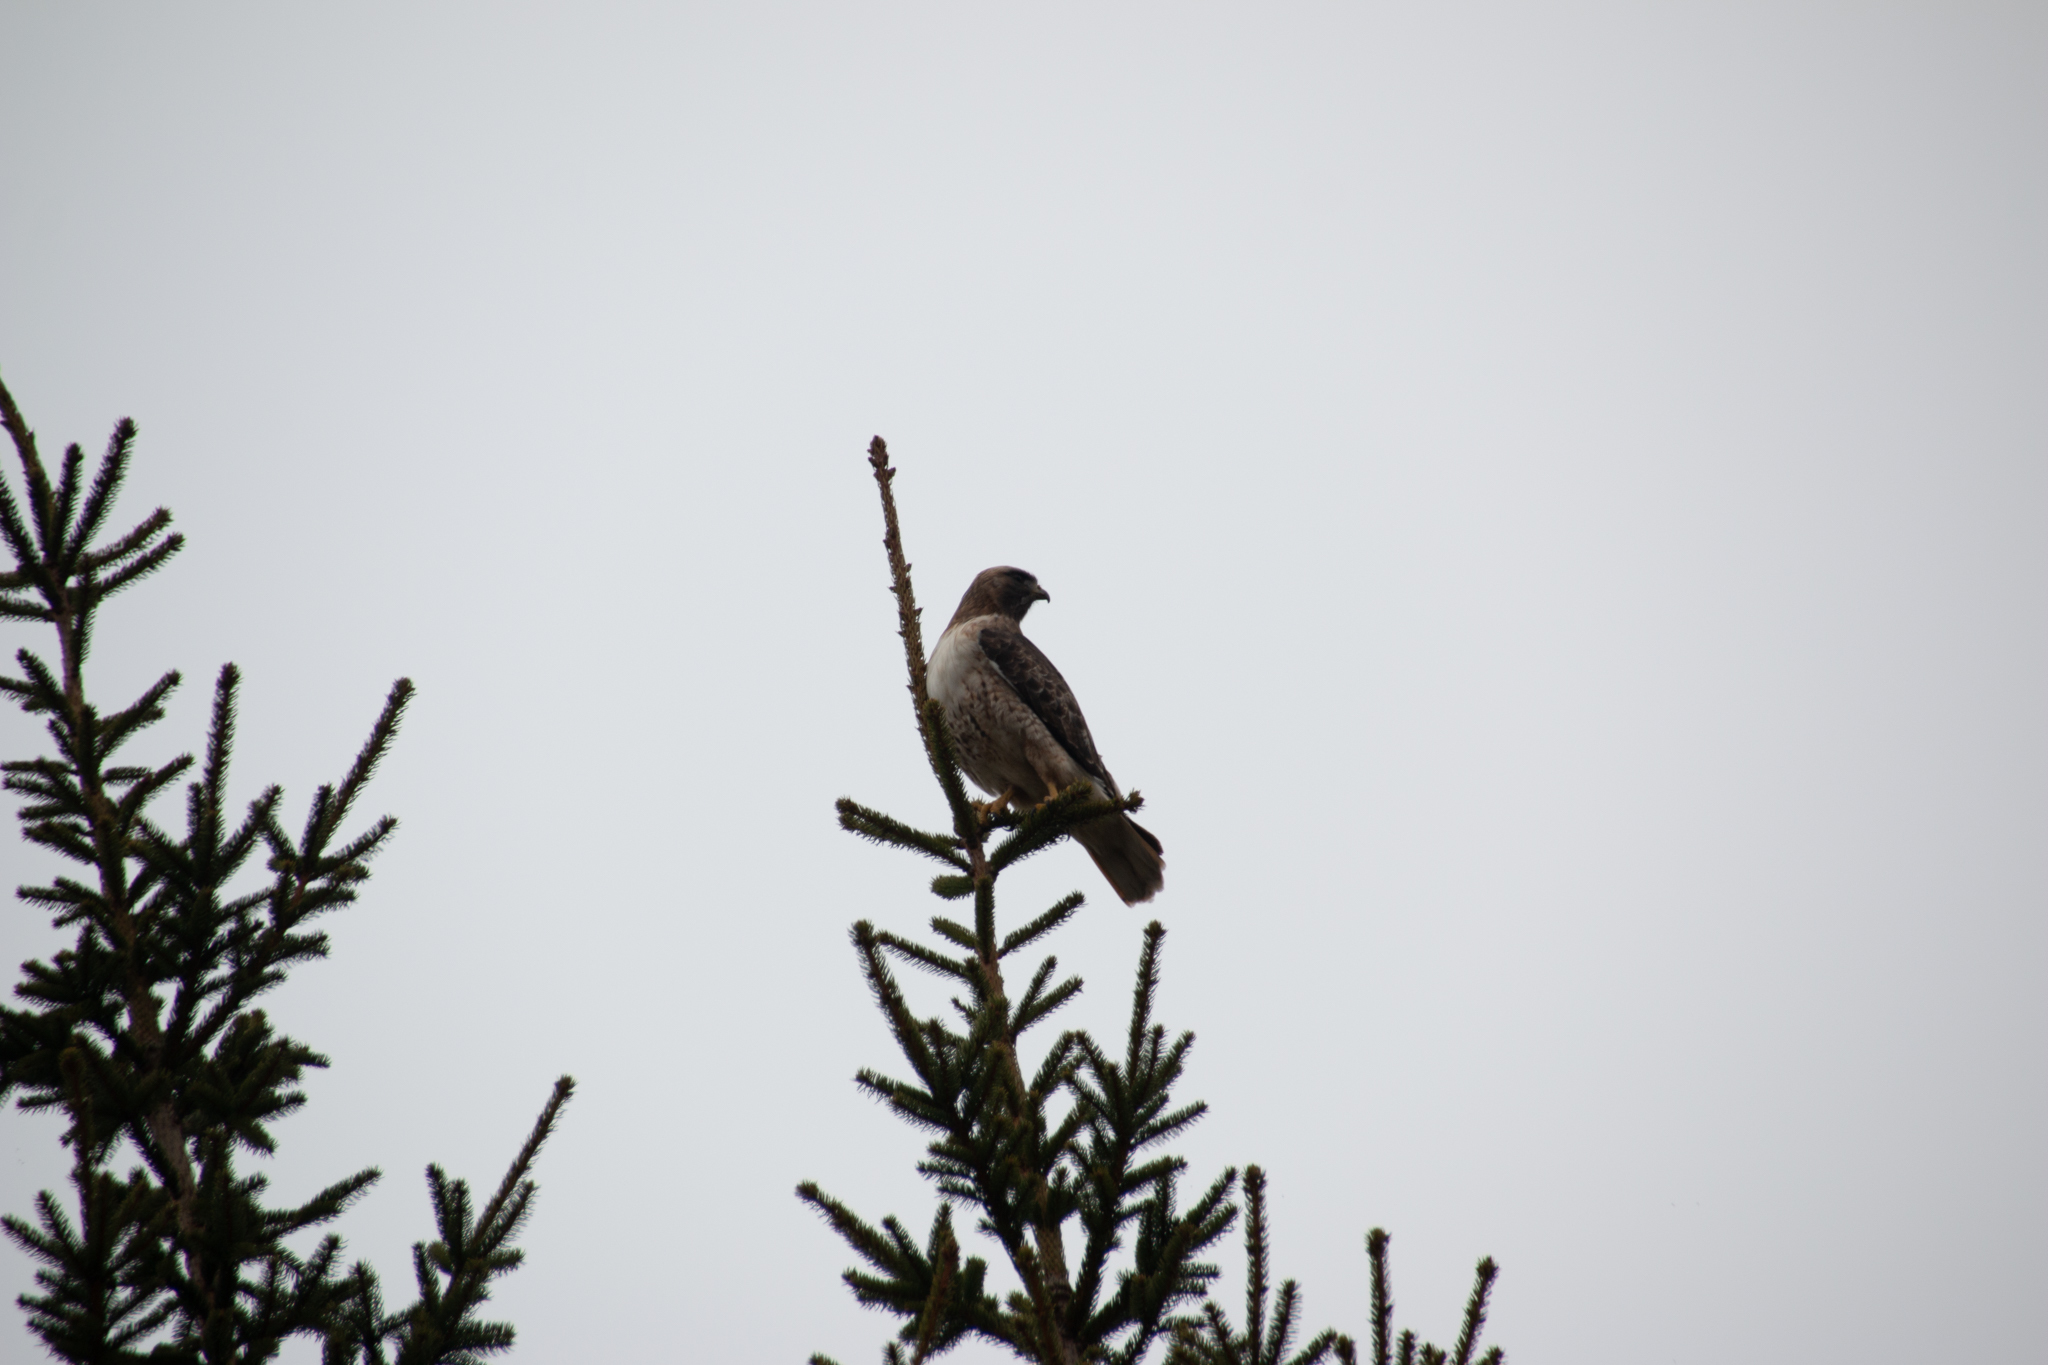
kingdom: Animalia
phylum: Chordata
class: Aves
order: Accipitriformes
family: Accipitridae
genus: Buteo
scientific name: Buteo jamaicensis
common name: Red-tailed hawk
